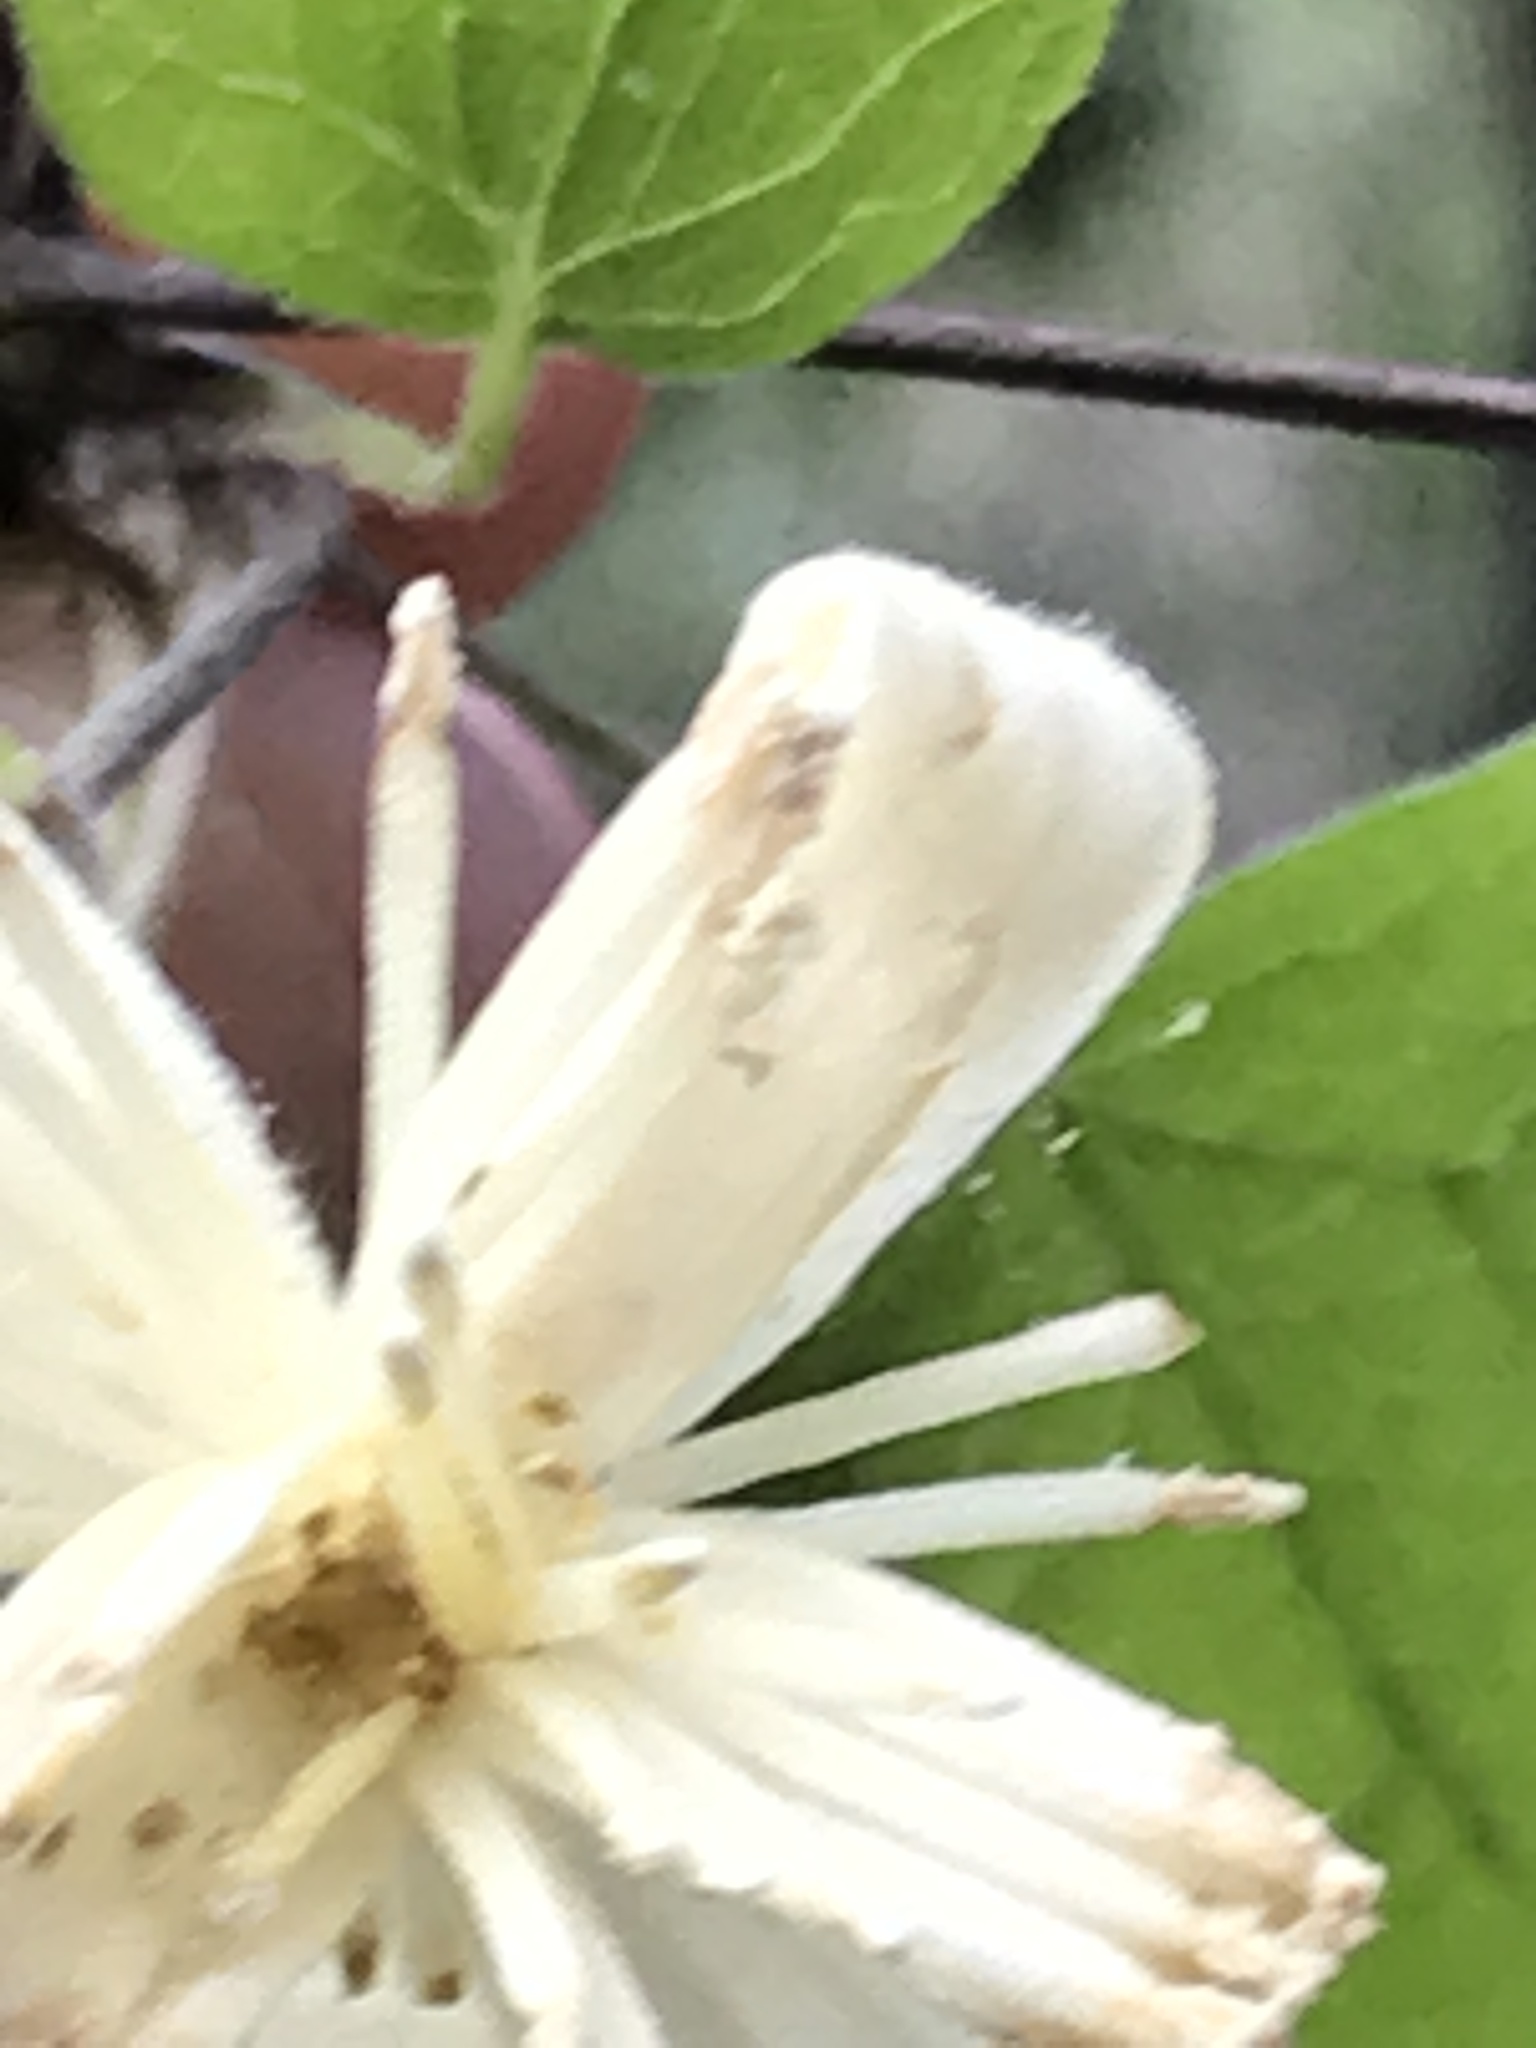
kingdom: Plantae
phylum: Tracheophyta
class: Magnoliopsida
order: Ranunculales
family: Ranunculaceae
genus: Clematis
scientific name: Clematis lasiantha
